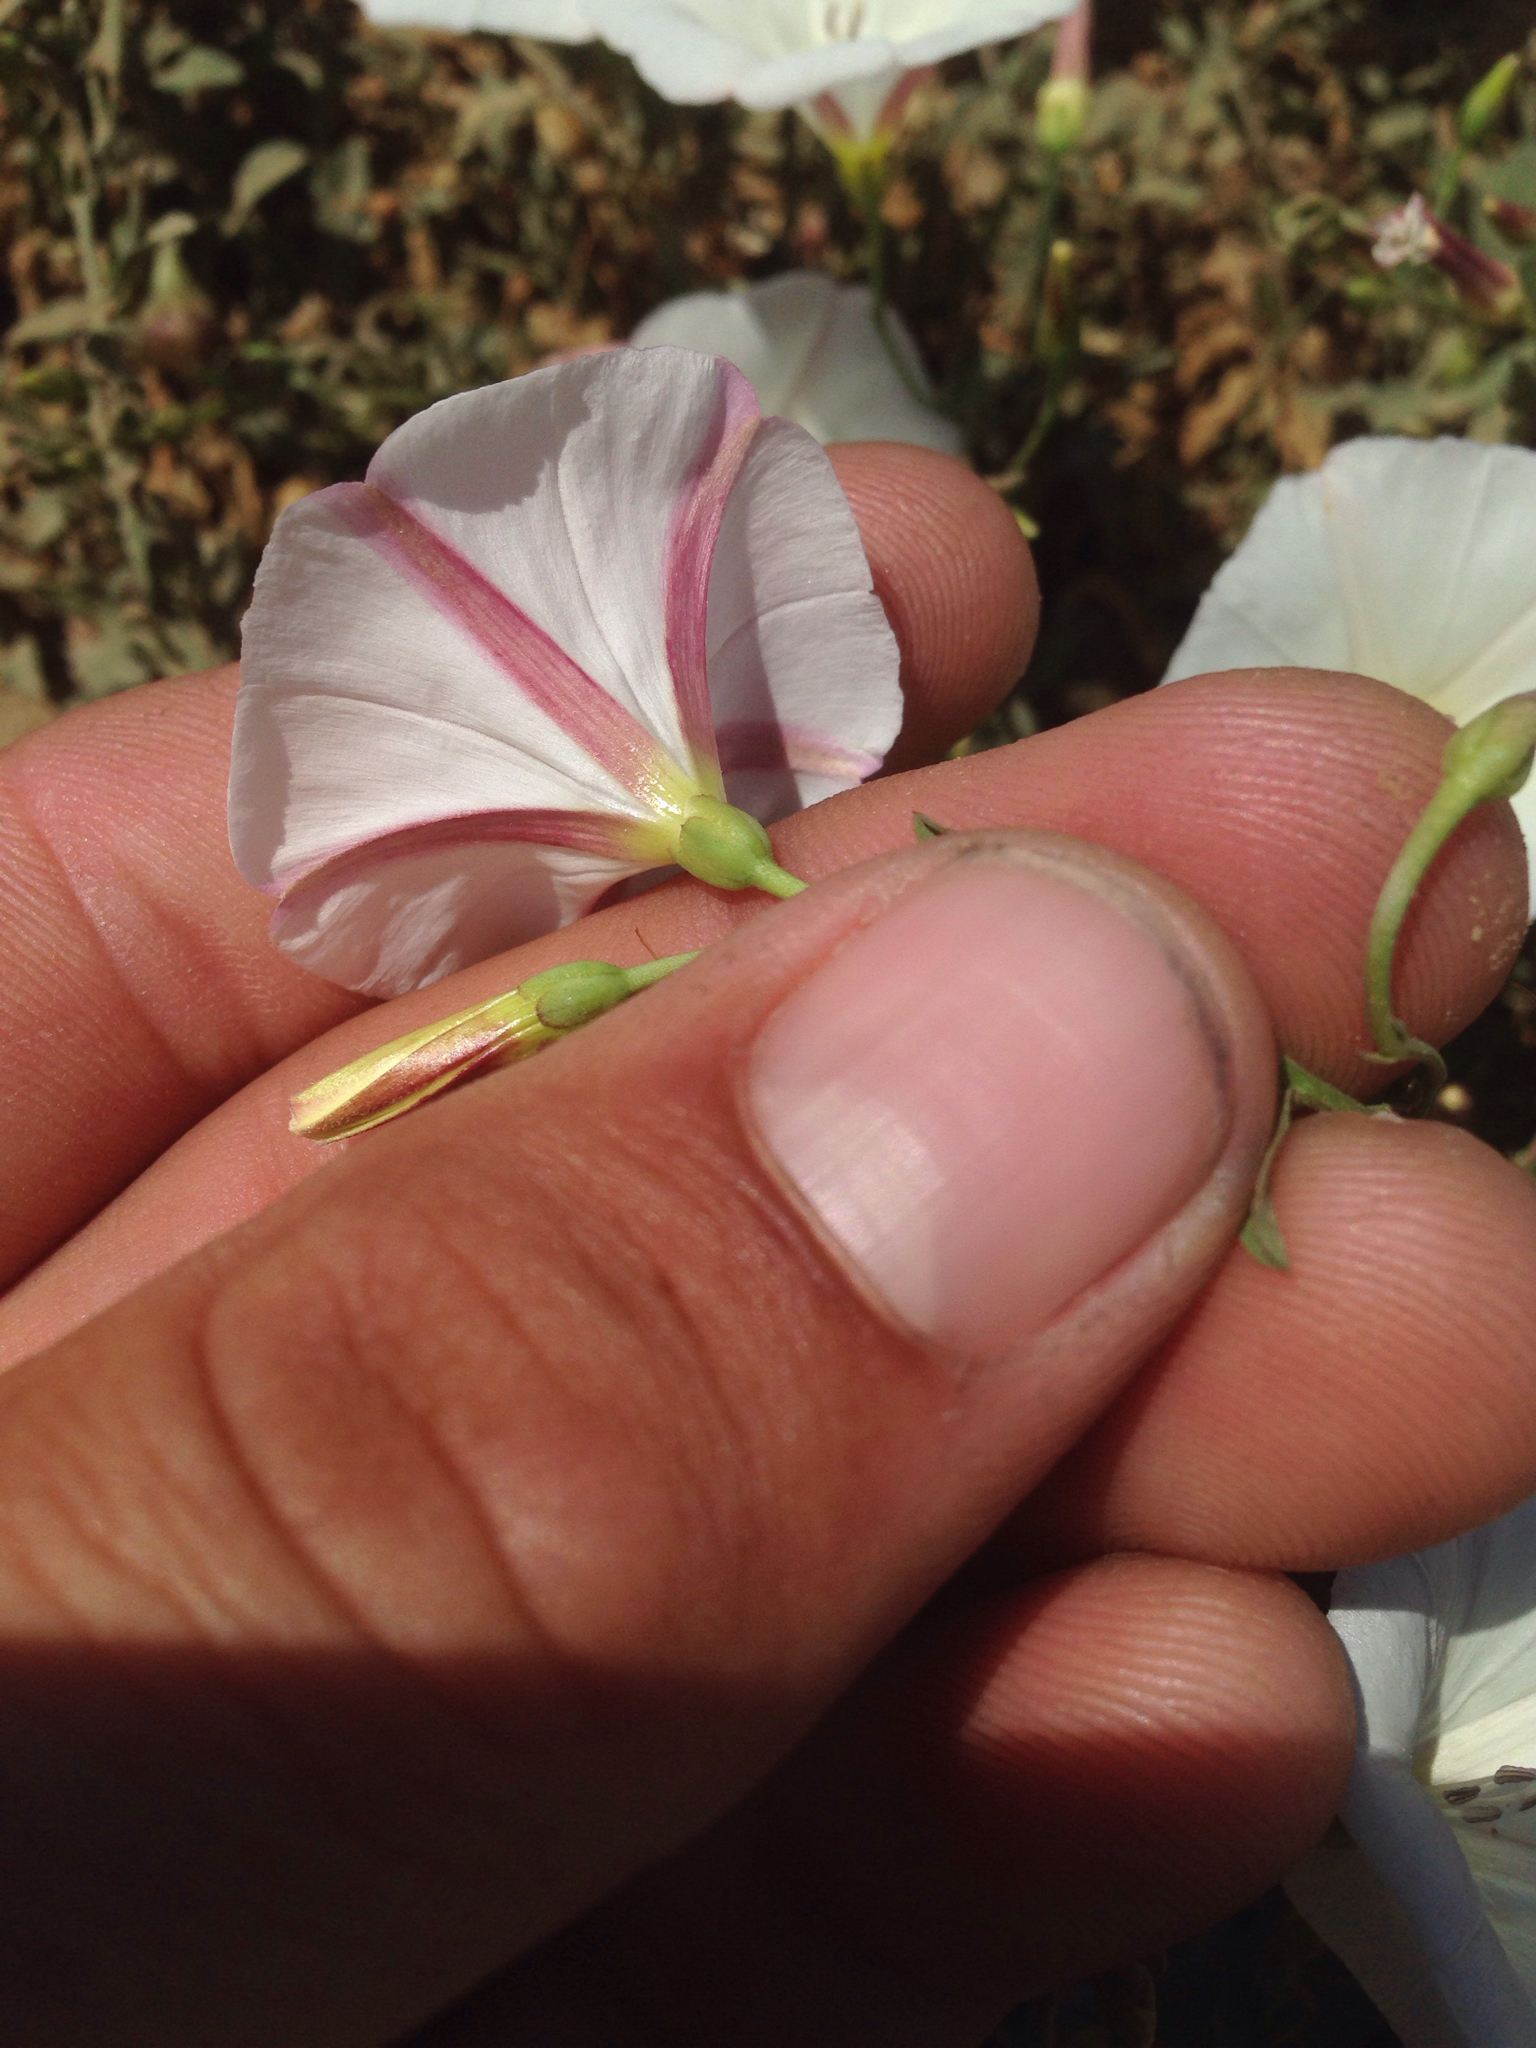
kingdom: Plantae
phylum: Tracheophyta
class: Magnoliopsida
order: Solanales
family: Convolvulaceae
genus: Convolvulus
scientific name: Convolvulus arvensis
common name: Field bindweed
